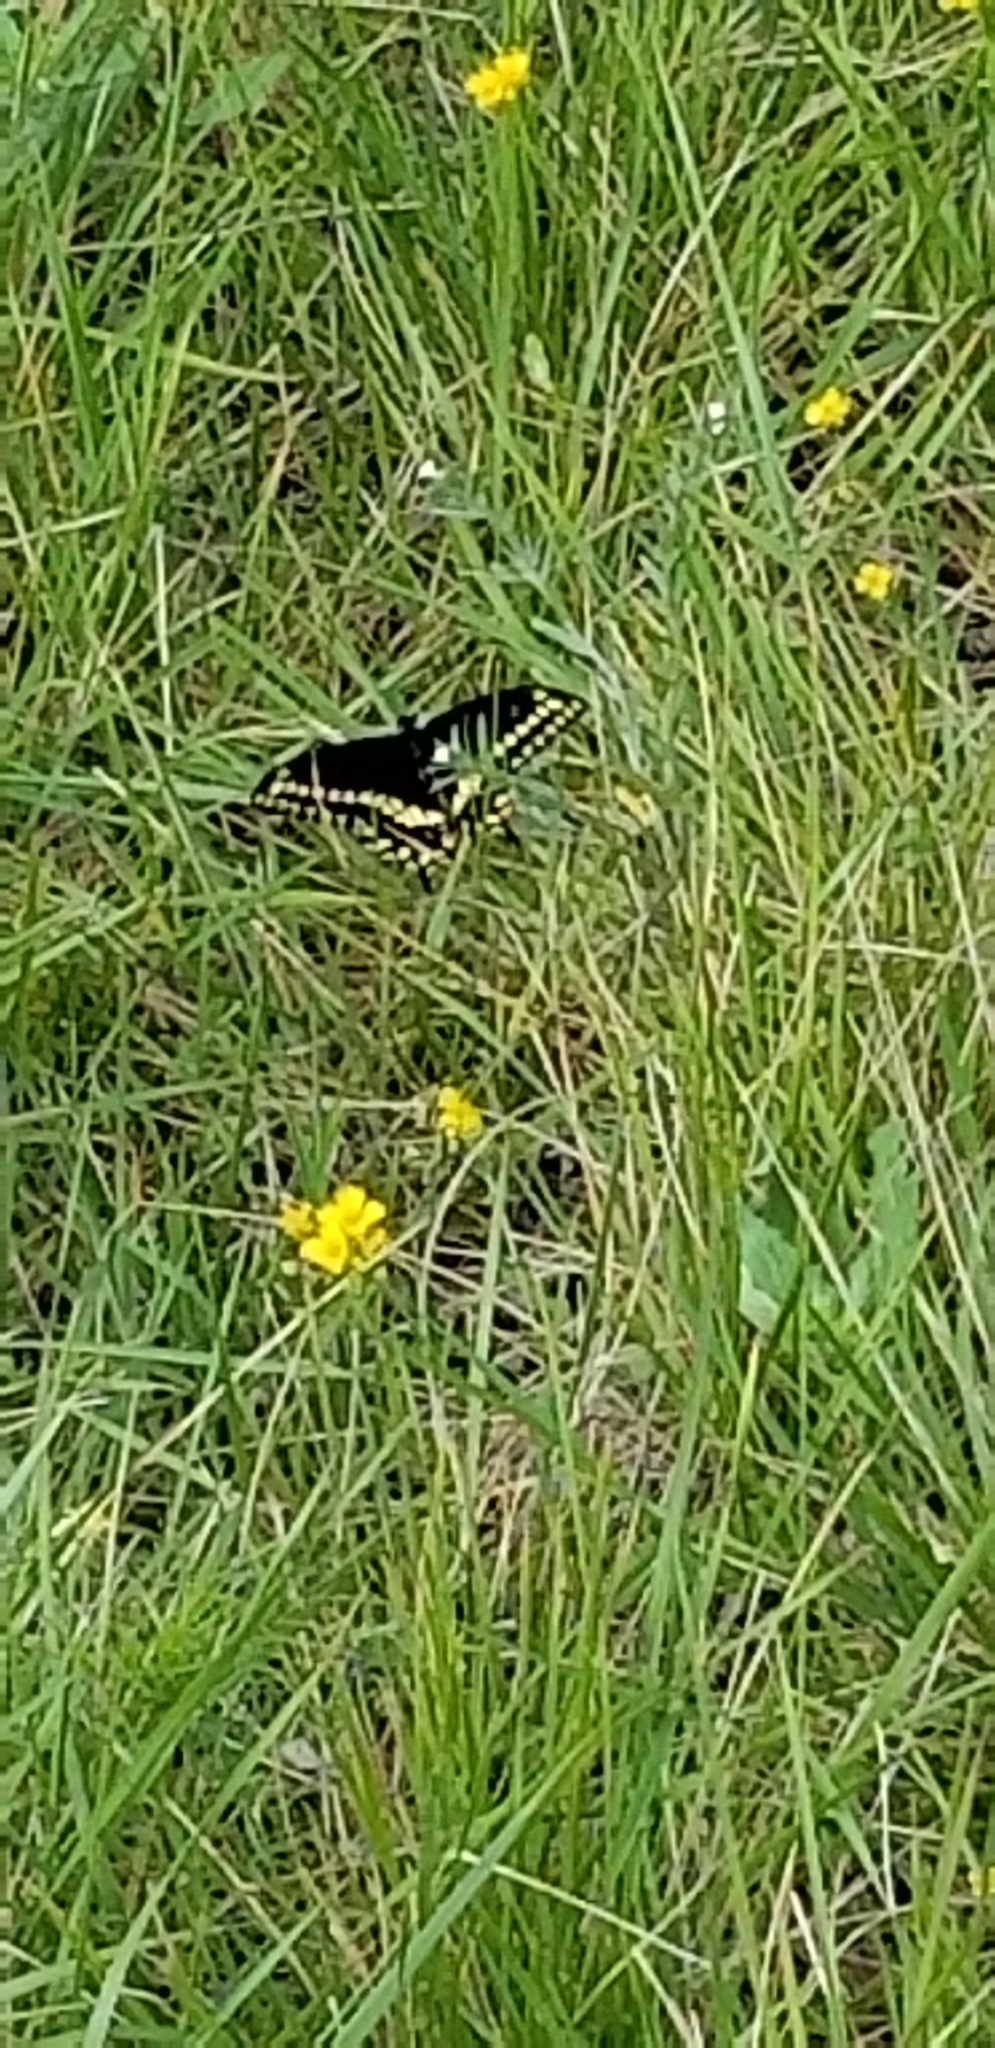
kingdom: Animalia
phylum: Arthropoda
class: Insecta
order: Lepidoptera
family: Papilionidae
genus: Papilio
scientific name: Papilio polyxenes
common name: Black swallowtail
